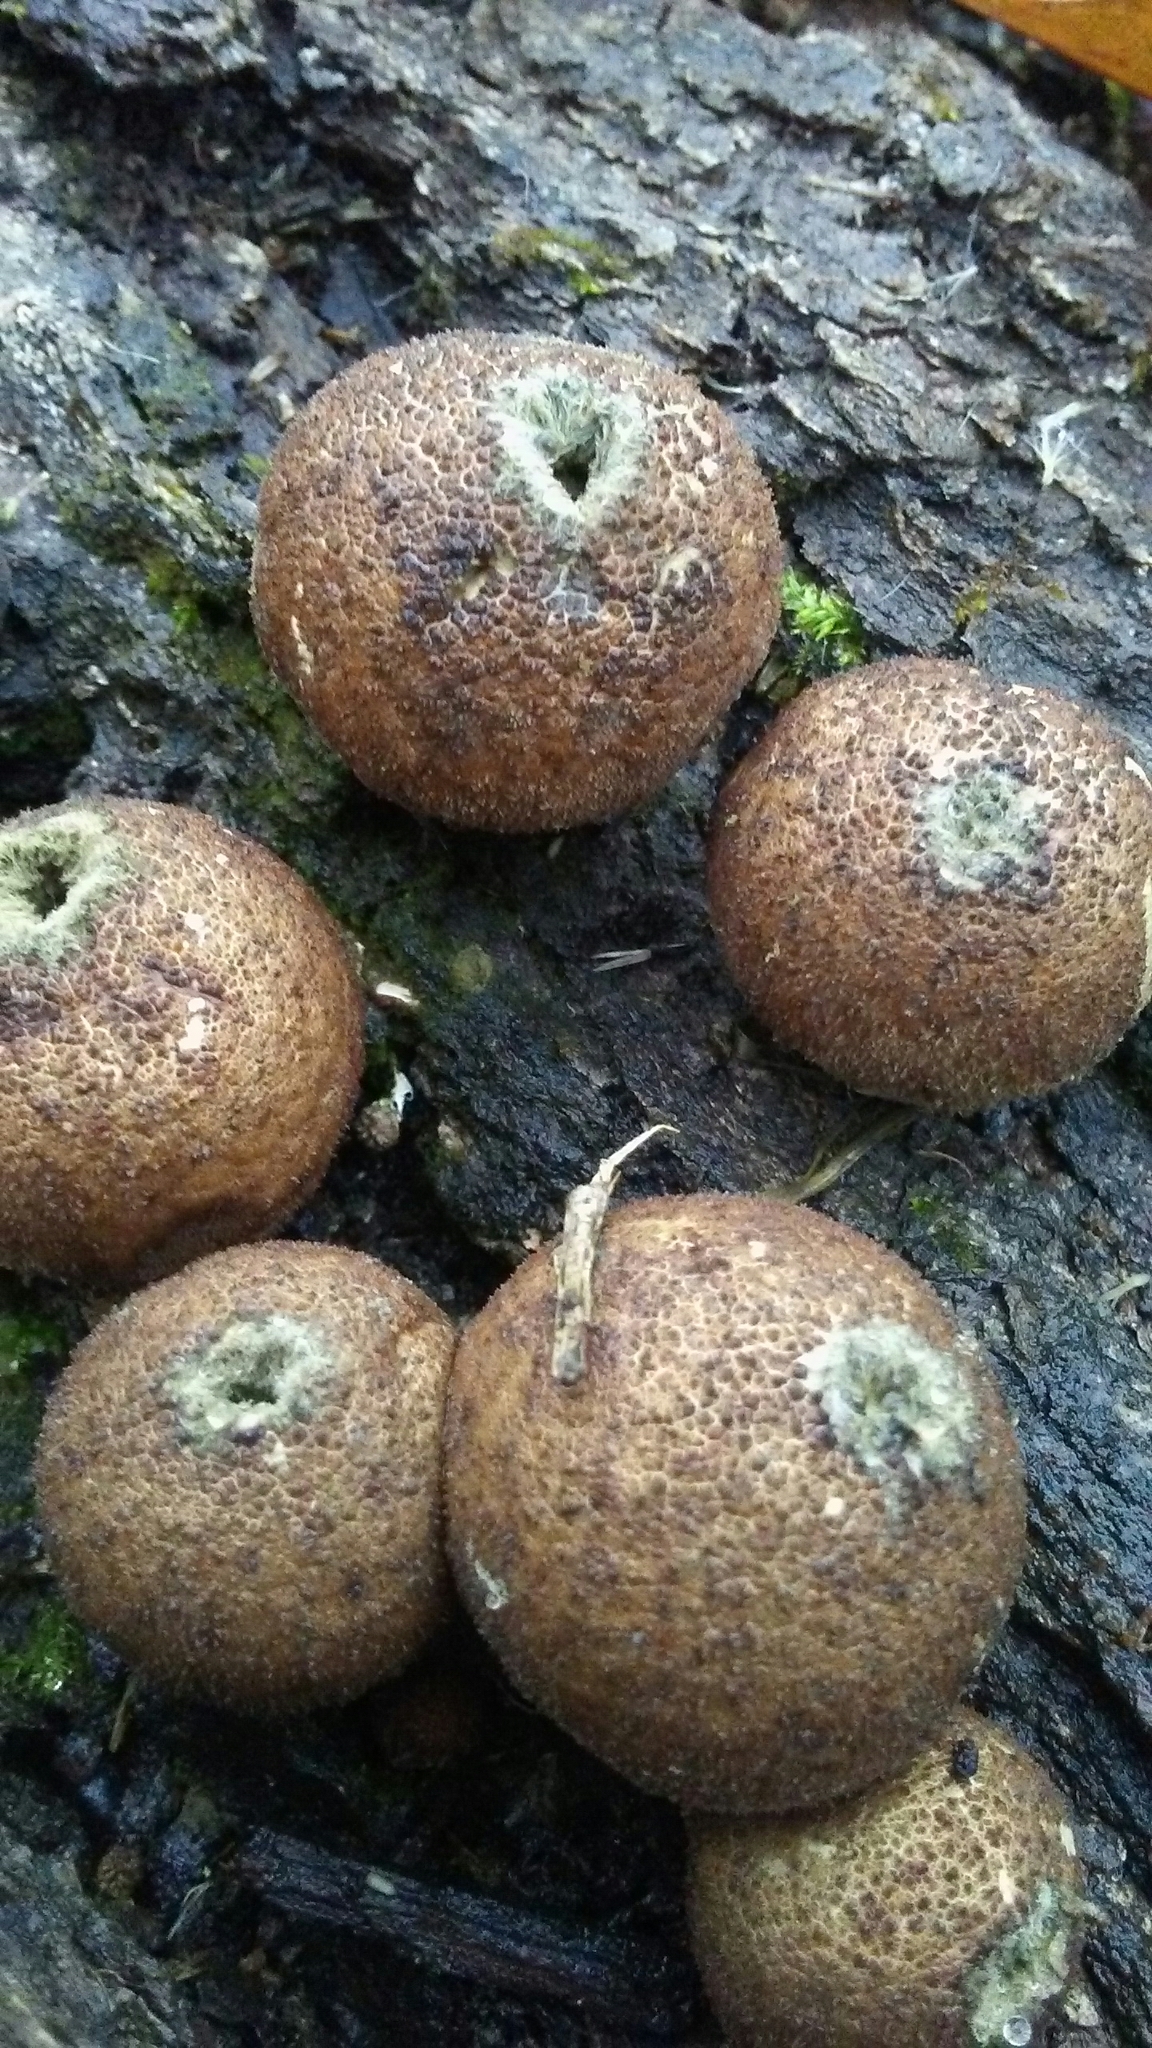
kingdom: Fungi
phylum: Basidiomycota
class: Agaricomycetes
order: Agaricales
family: Lycoperdaceae
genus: Apioperdon
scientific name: Apioperdon pyriforme
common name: Pear-shaped puffball
